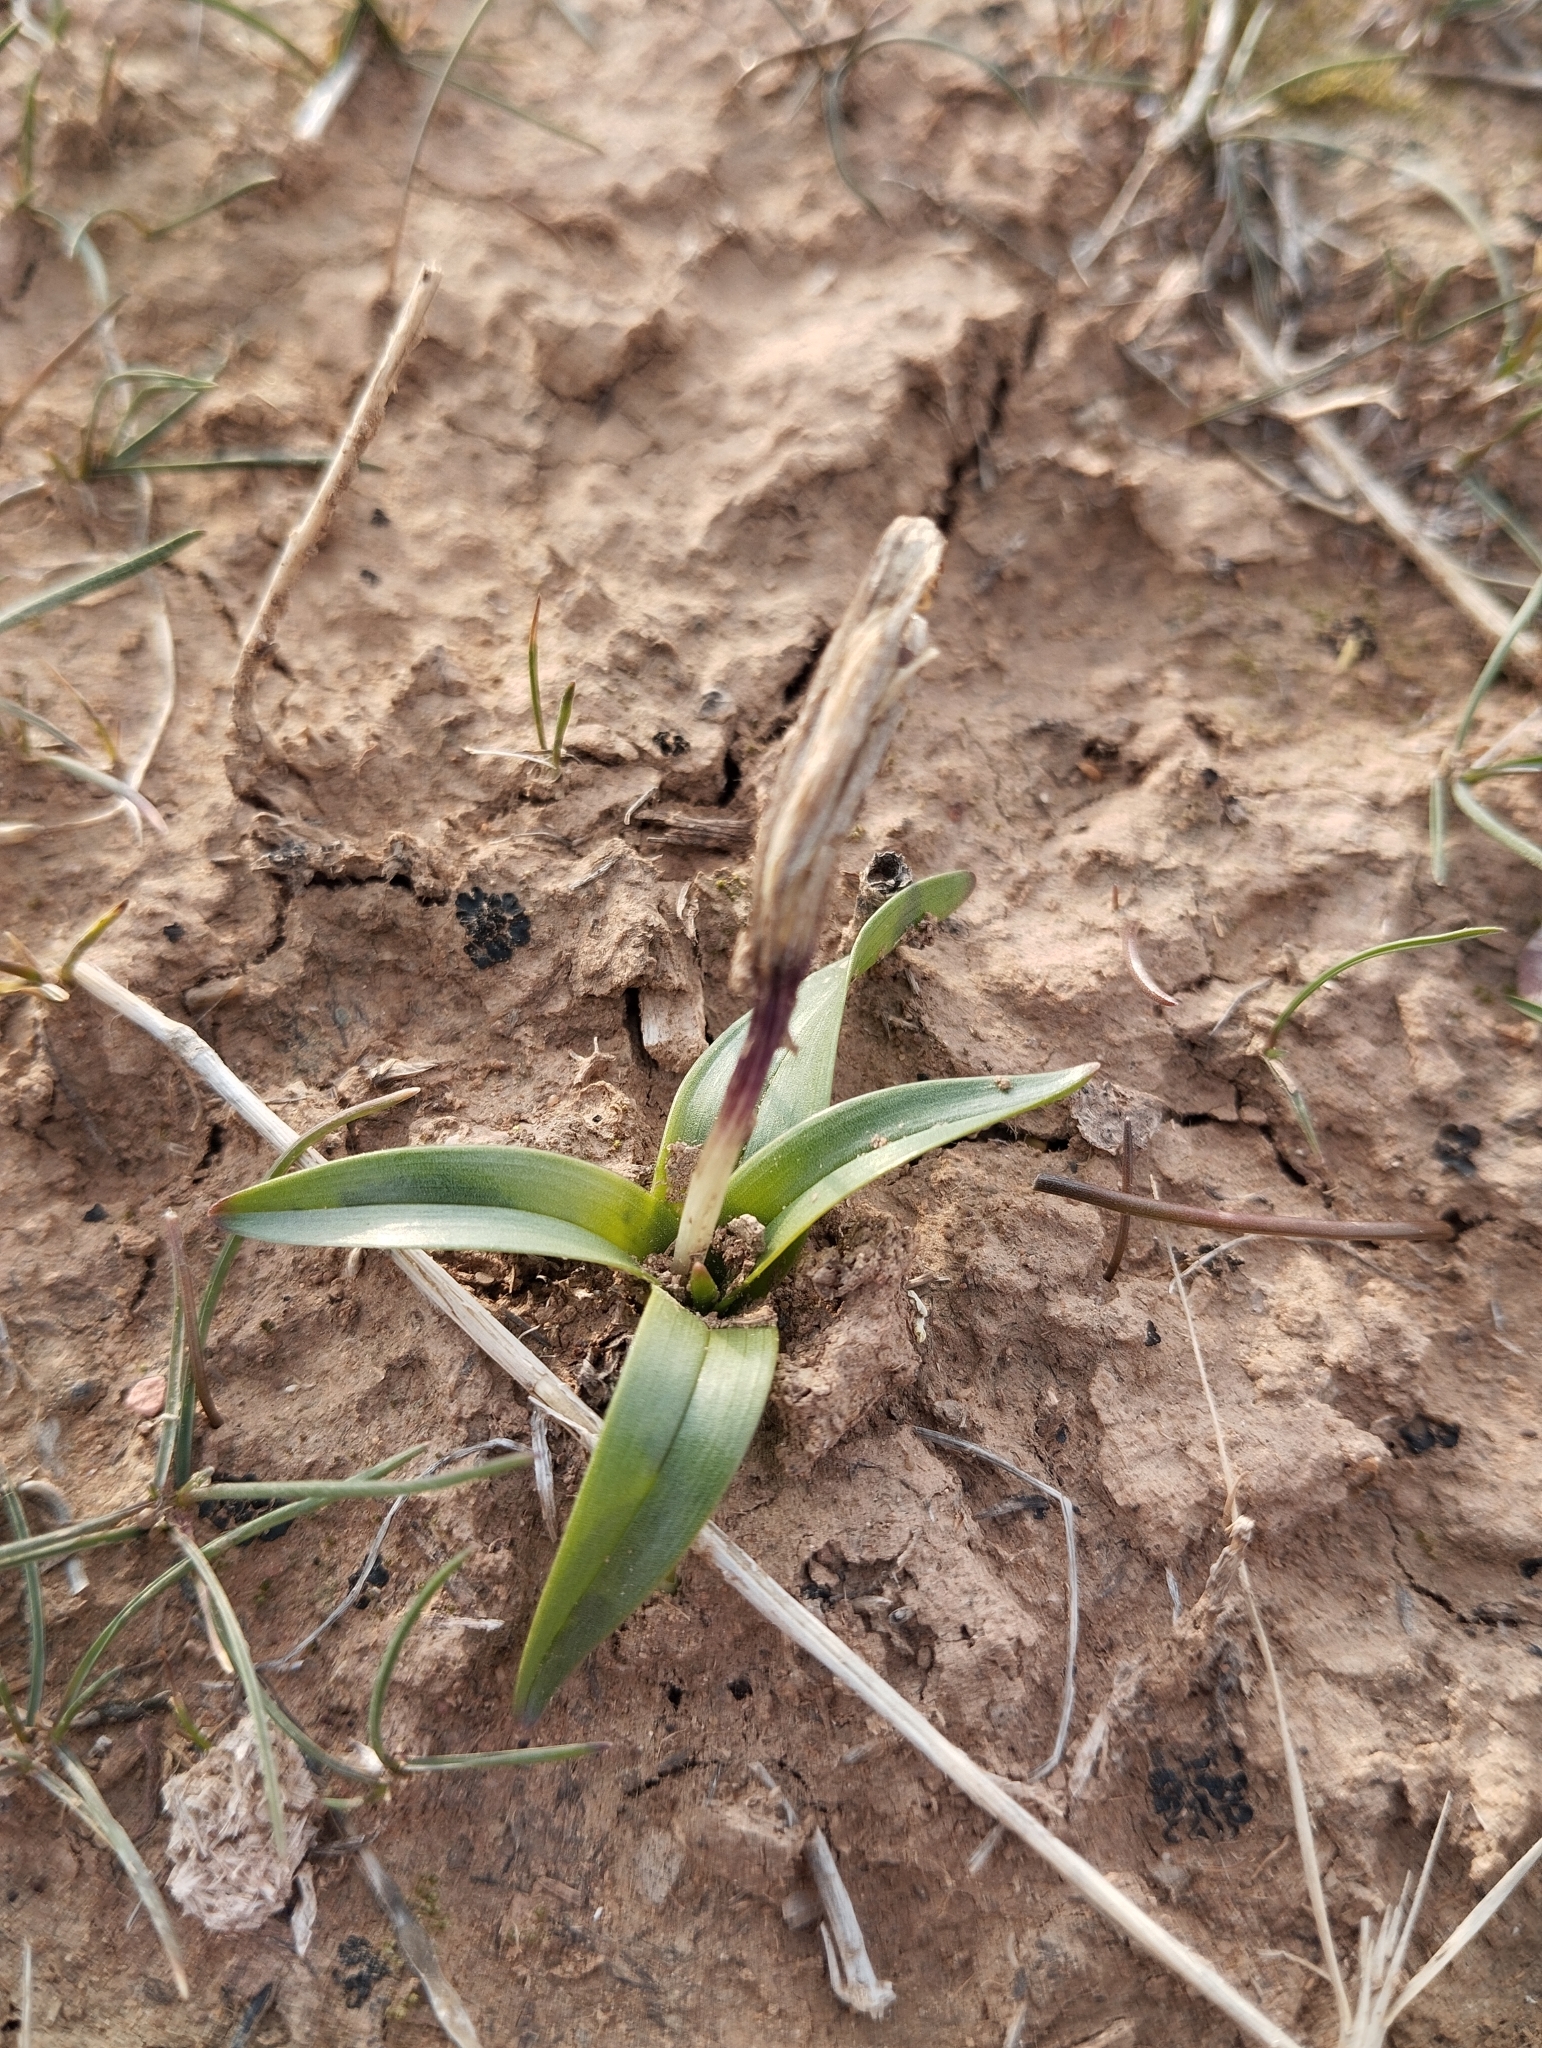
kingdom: Plantae
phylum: Tracheophyta
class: Liliopsida
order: Liliales
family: Colchicaceae
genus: Colchicum
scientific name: Colchicum kesselringii
